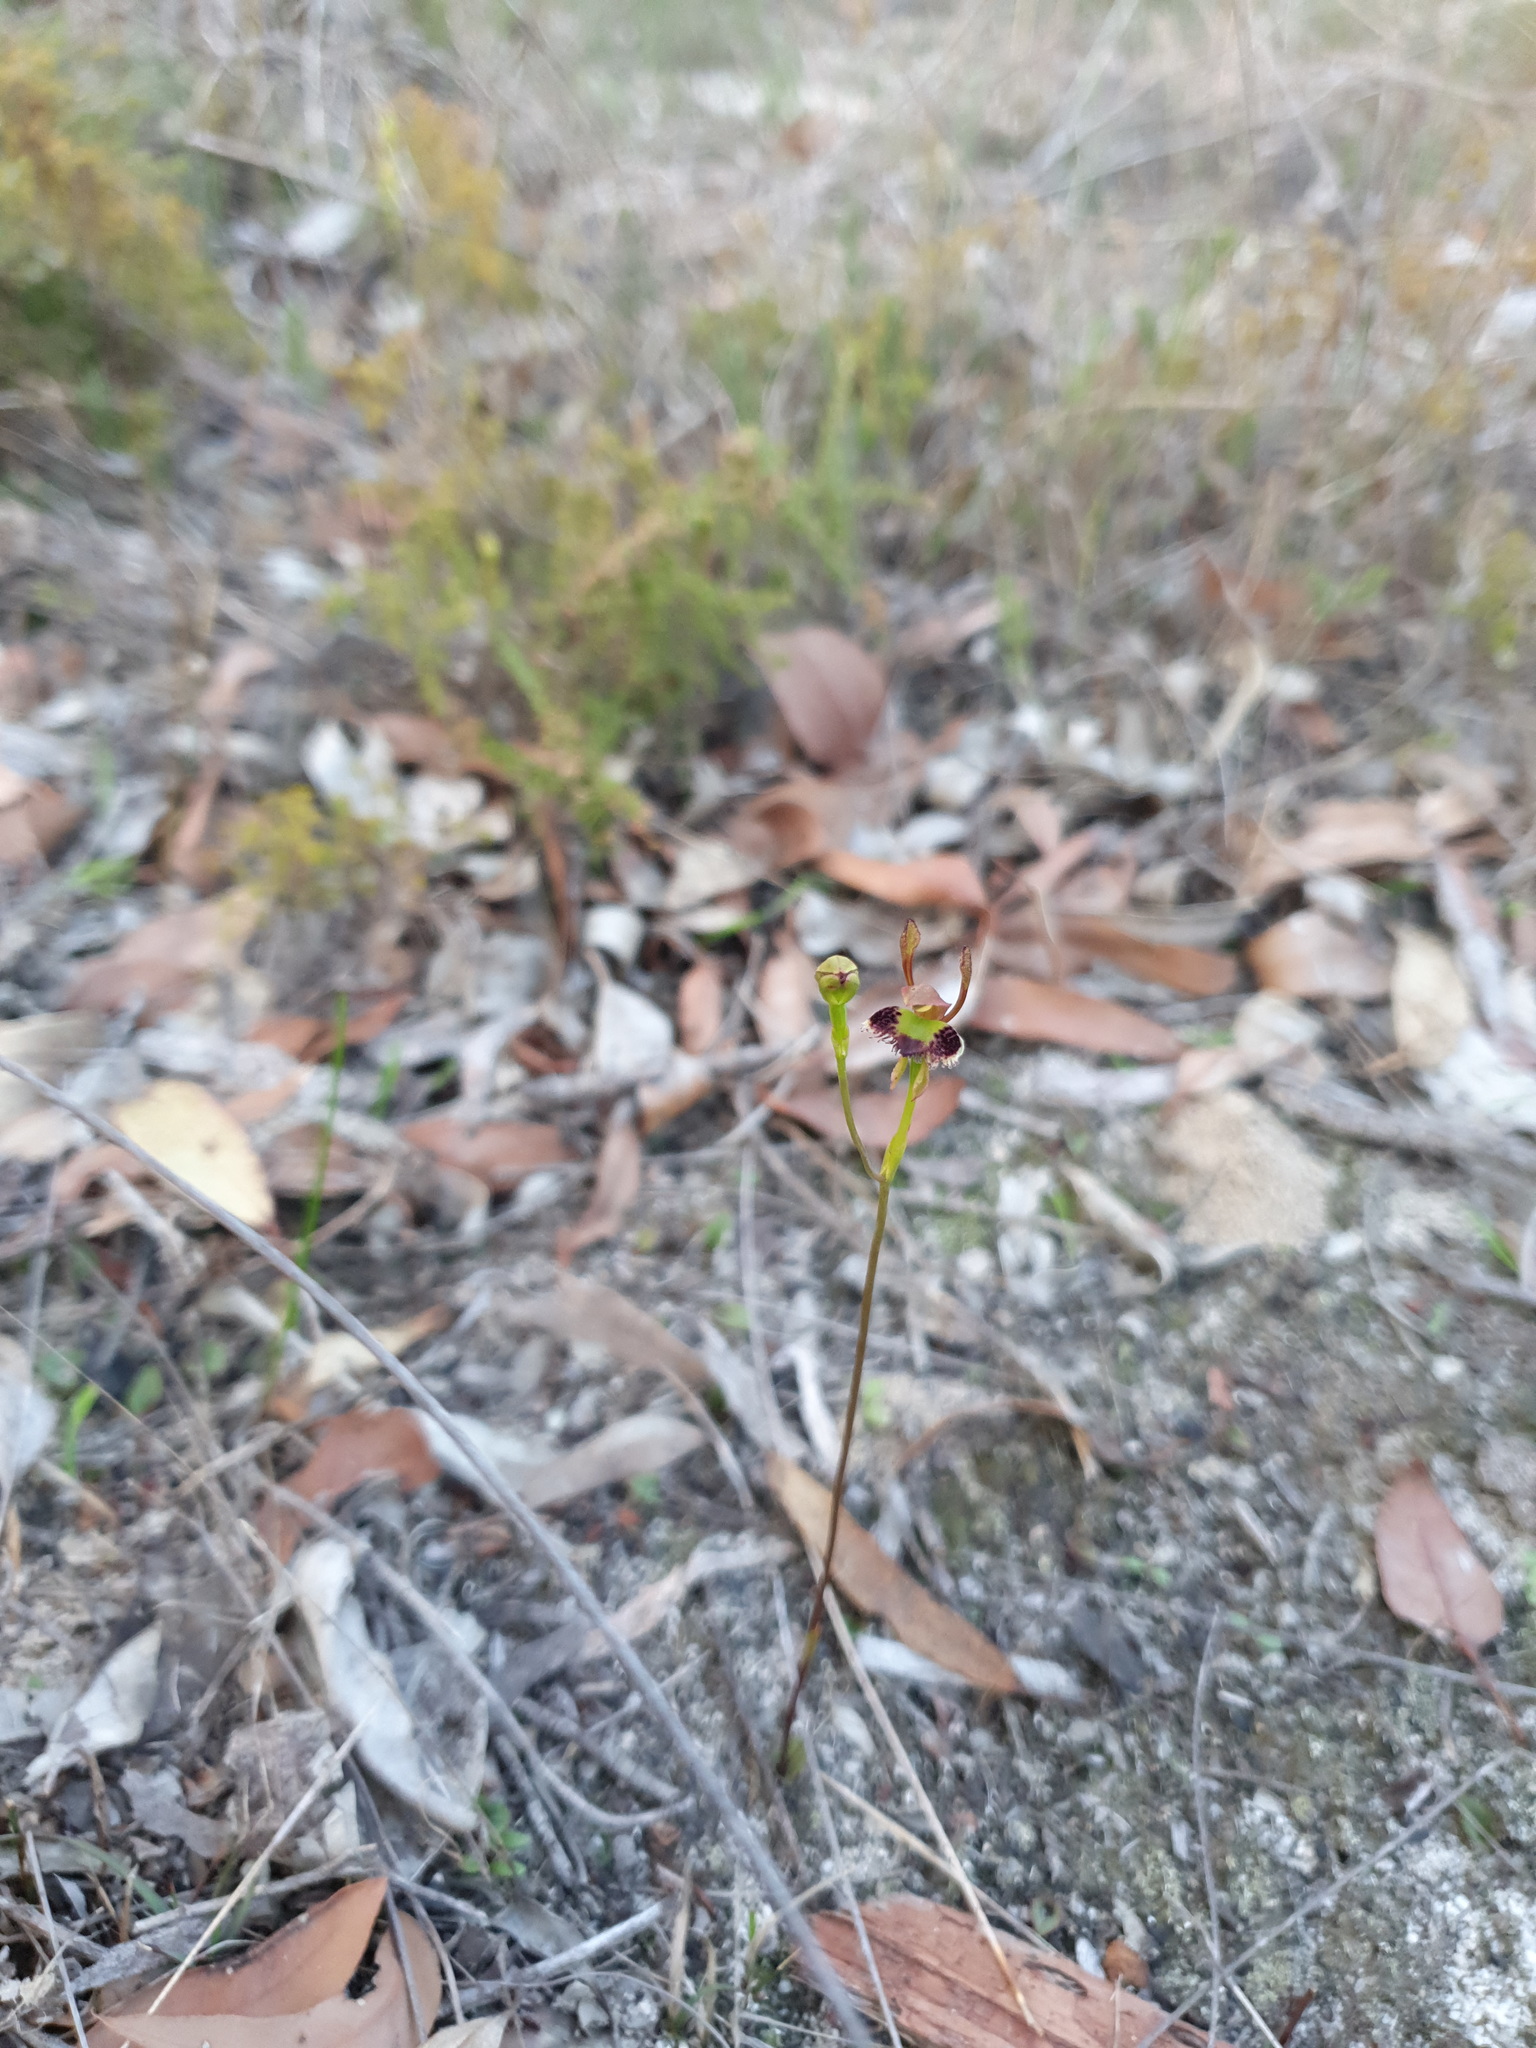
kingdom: Plantae
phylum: Tracheophyta
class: Liliopsida
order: Asparagales
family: Orchidaceae
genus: Leporella
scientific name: Leporella fimbriata
